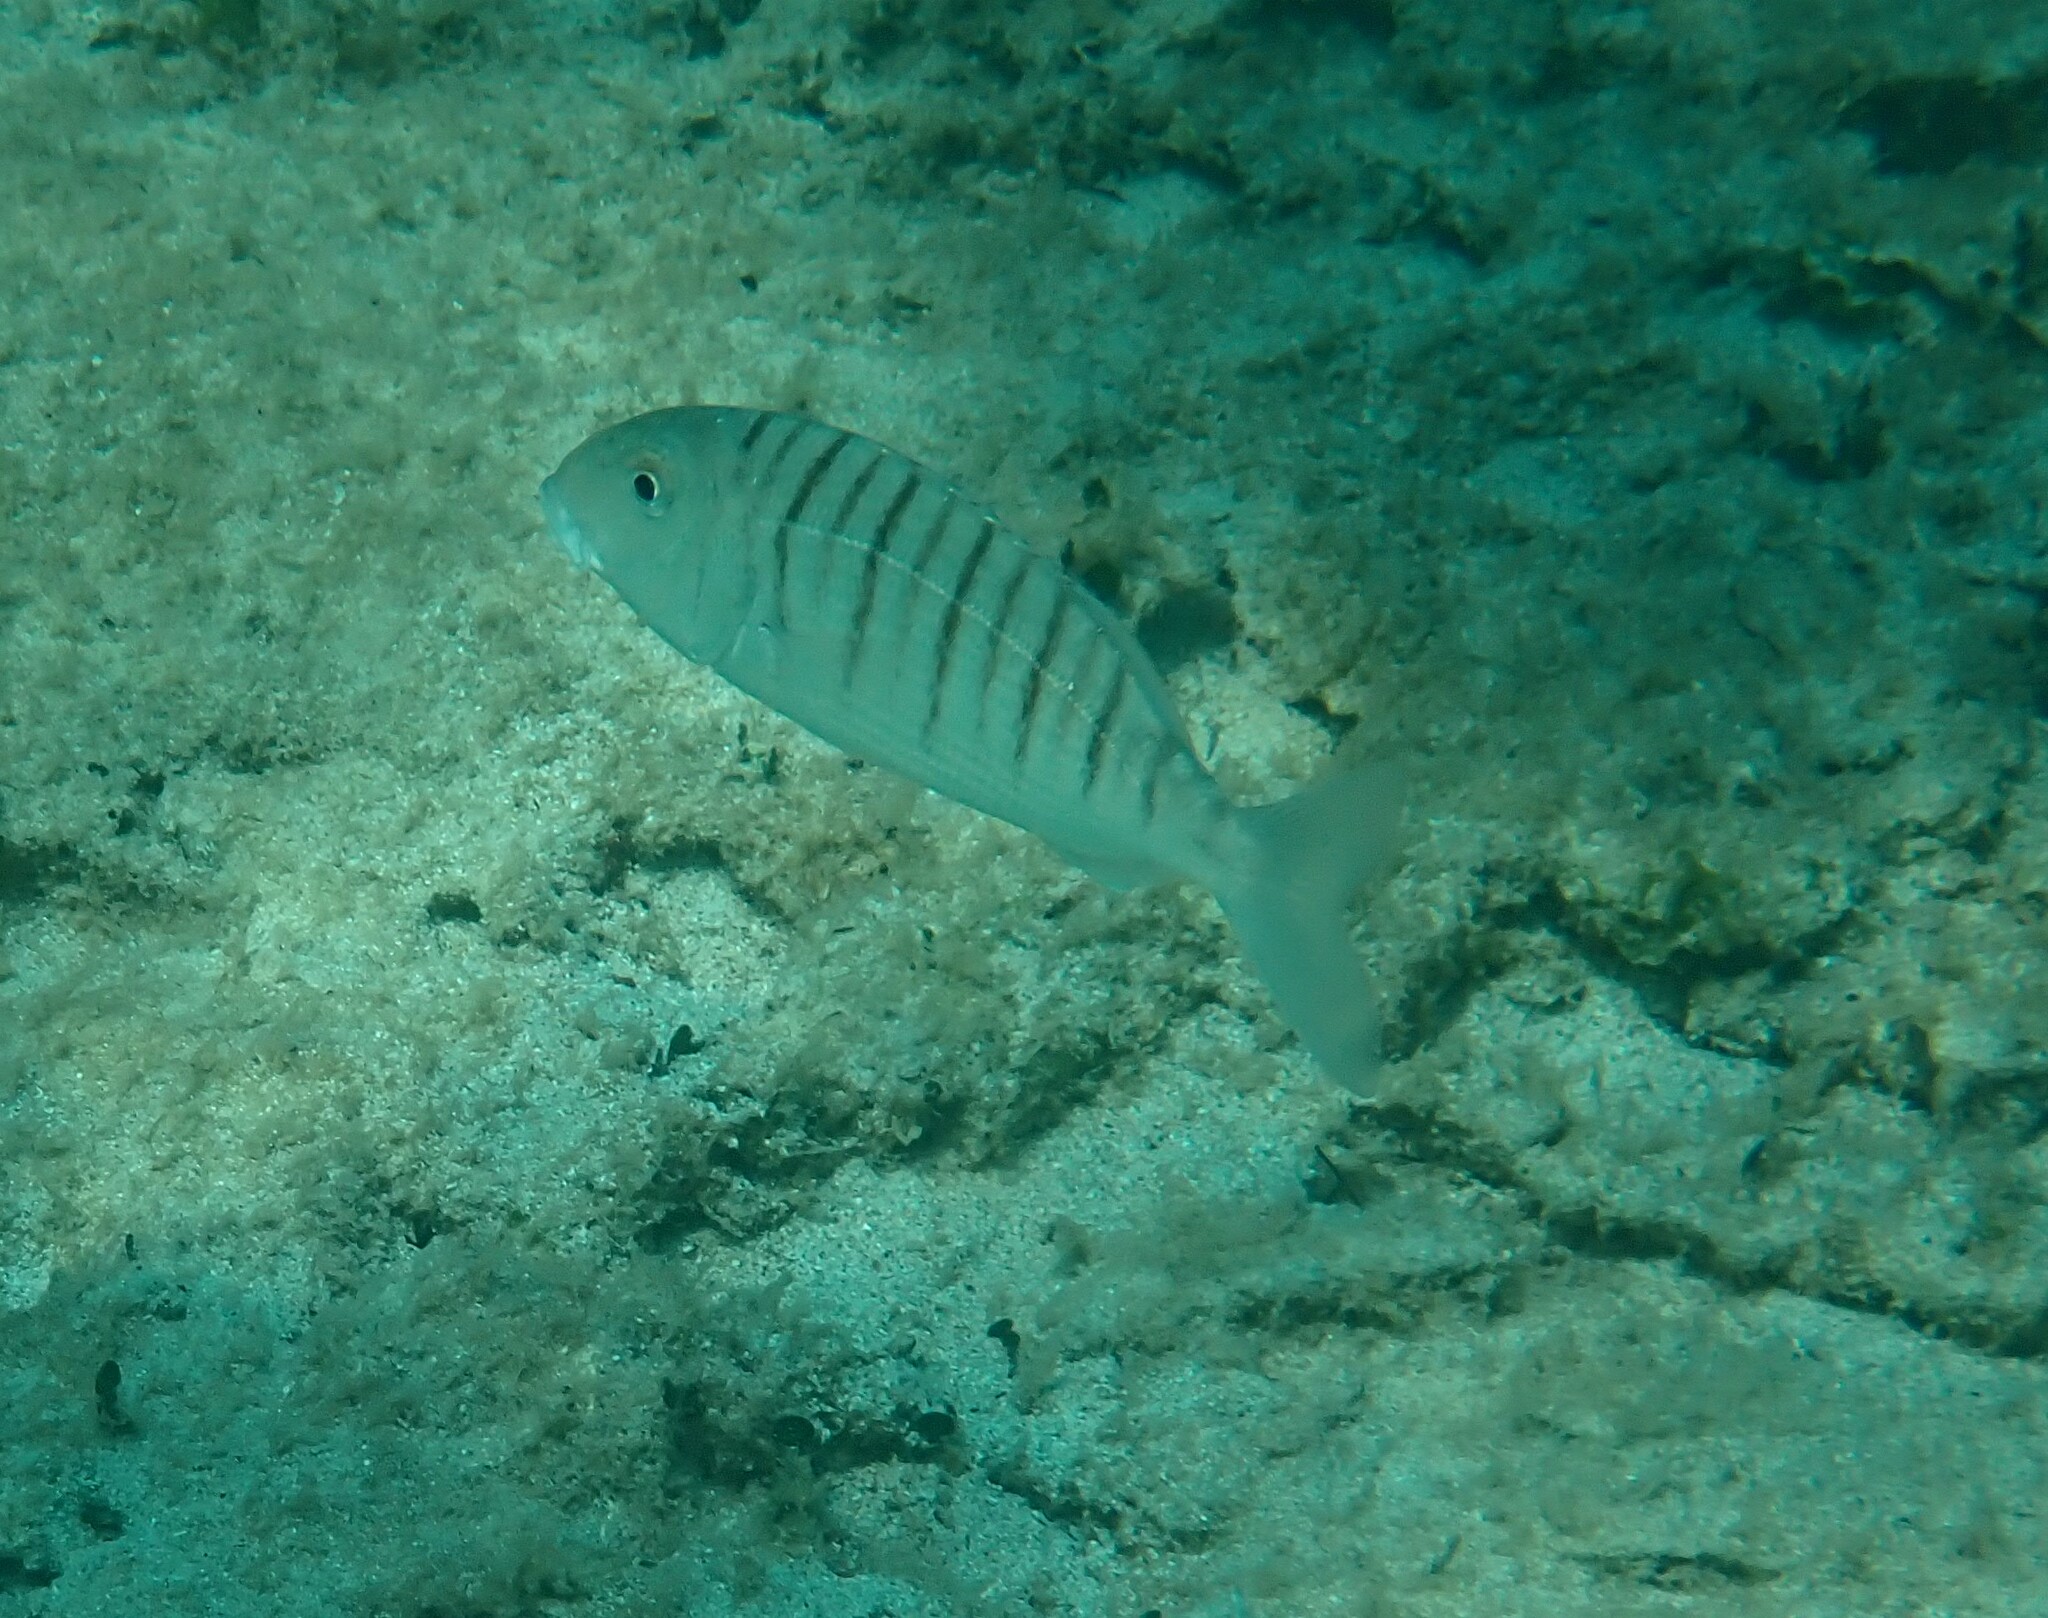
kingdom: Animalia
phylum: Chordata
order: Perciformes
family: Sparidae
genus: Lithognathus
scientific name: Lithognathus mormyrus
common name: Sand steenbras
